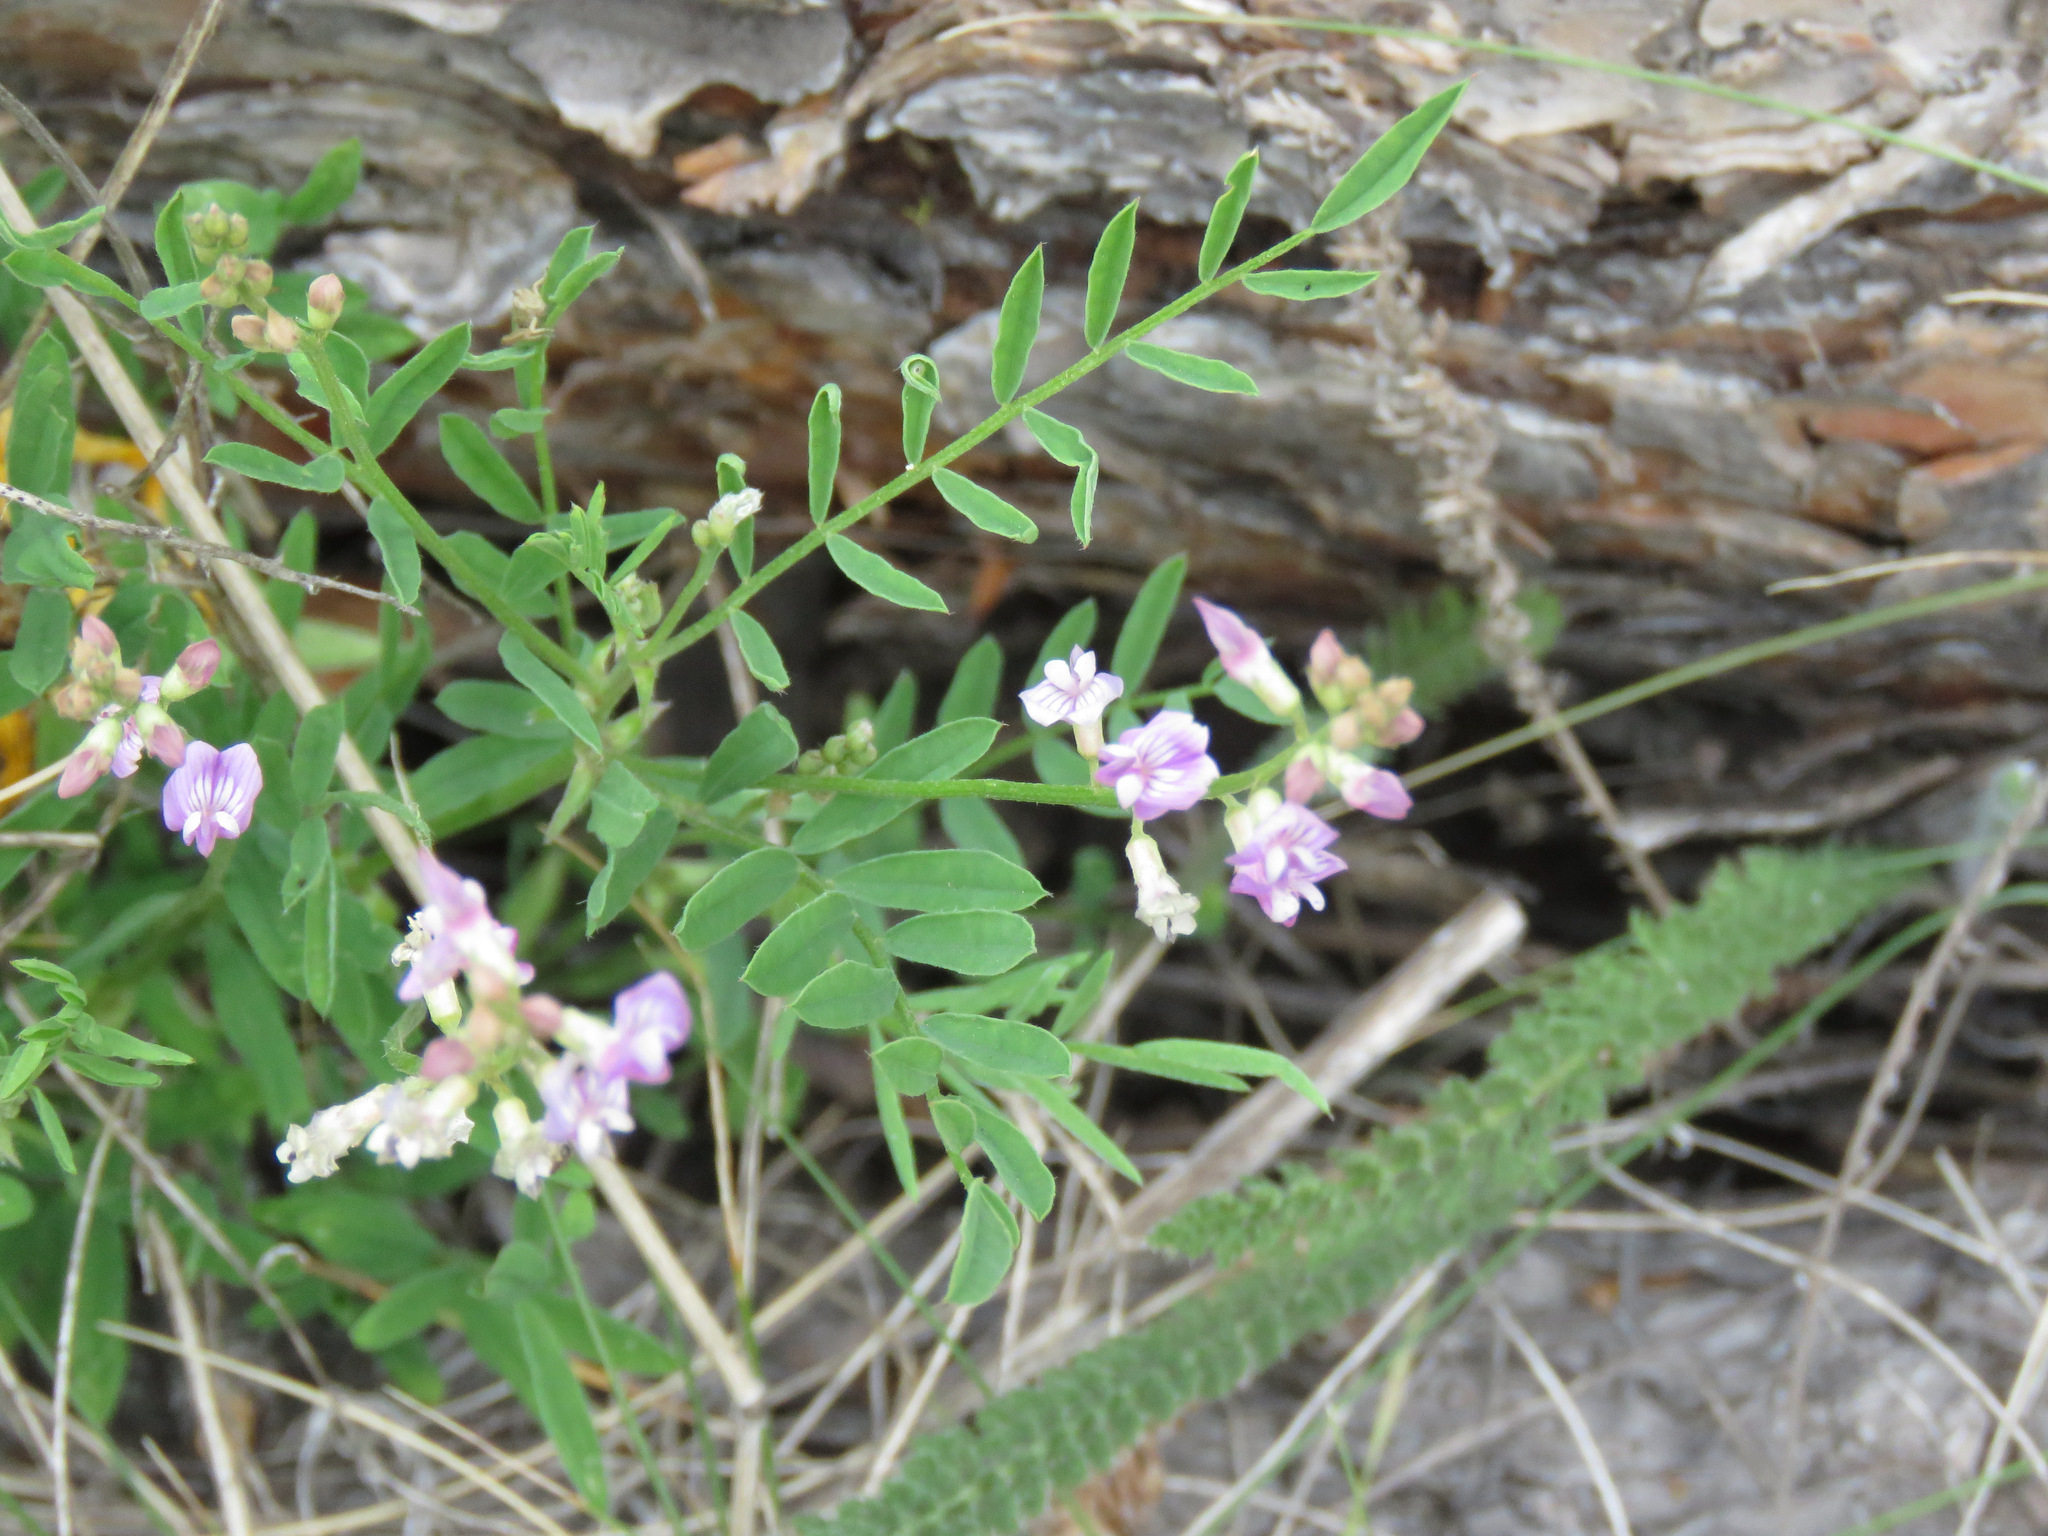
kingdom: Plantae
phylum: Tracheophyta
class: Magnoliopsida
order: Fabales
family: Fabaceae
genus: Astragalus
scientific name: Astragalus miser
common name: Timber milkvetch
